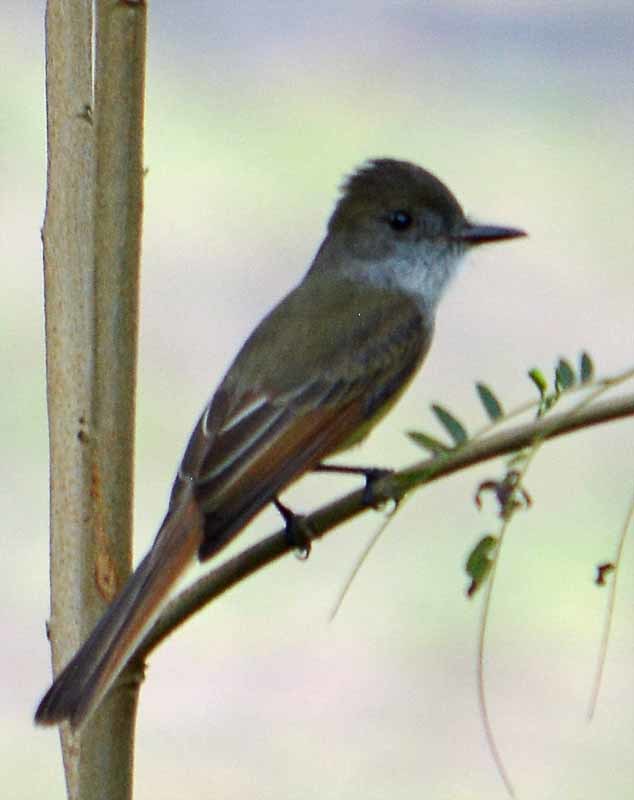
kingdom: Animalia
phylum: Chordata
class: Aves
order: Passeriformes
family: Tyrannidae
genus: Myiarchus
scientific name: Myiarchus tuberculifer
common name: Dusky-capped flycatcher
